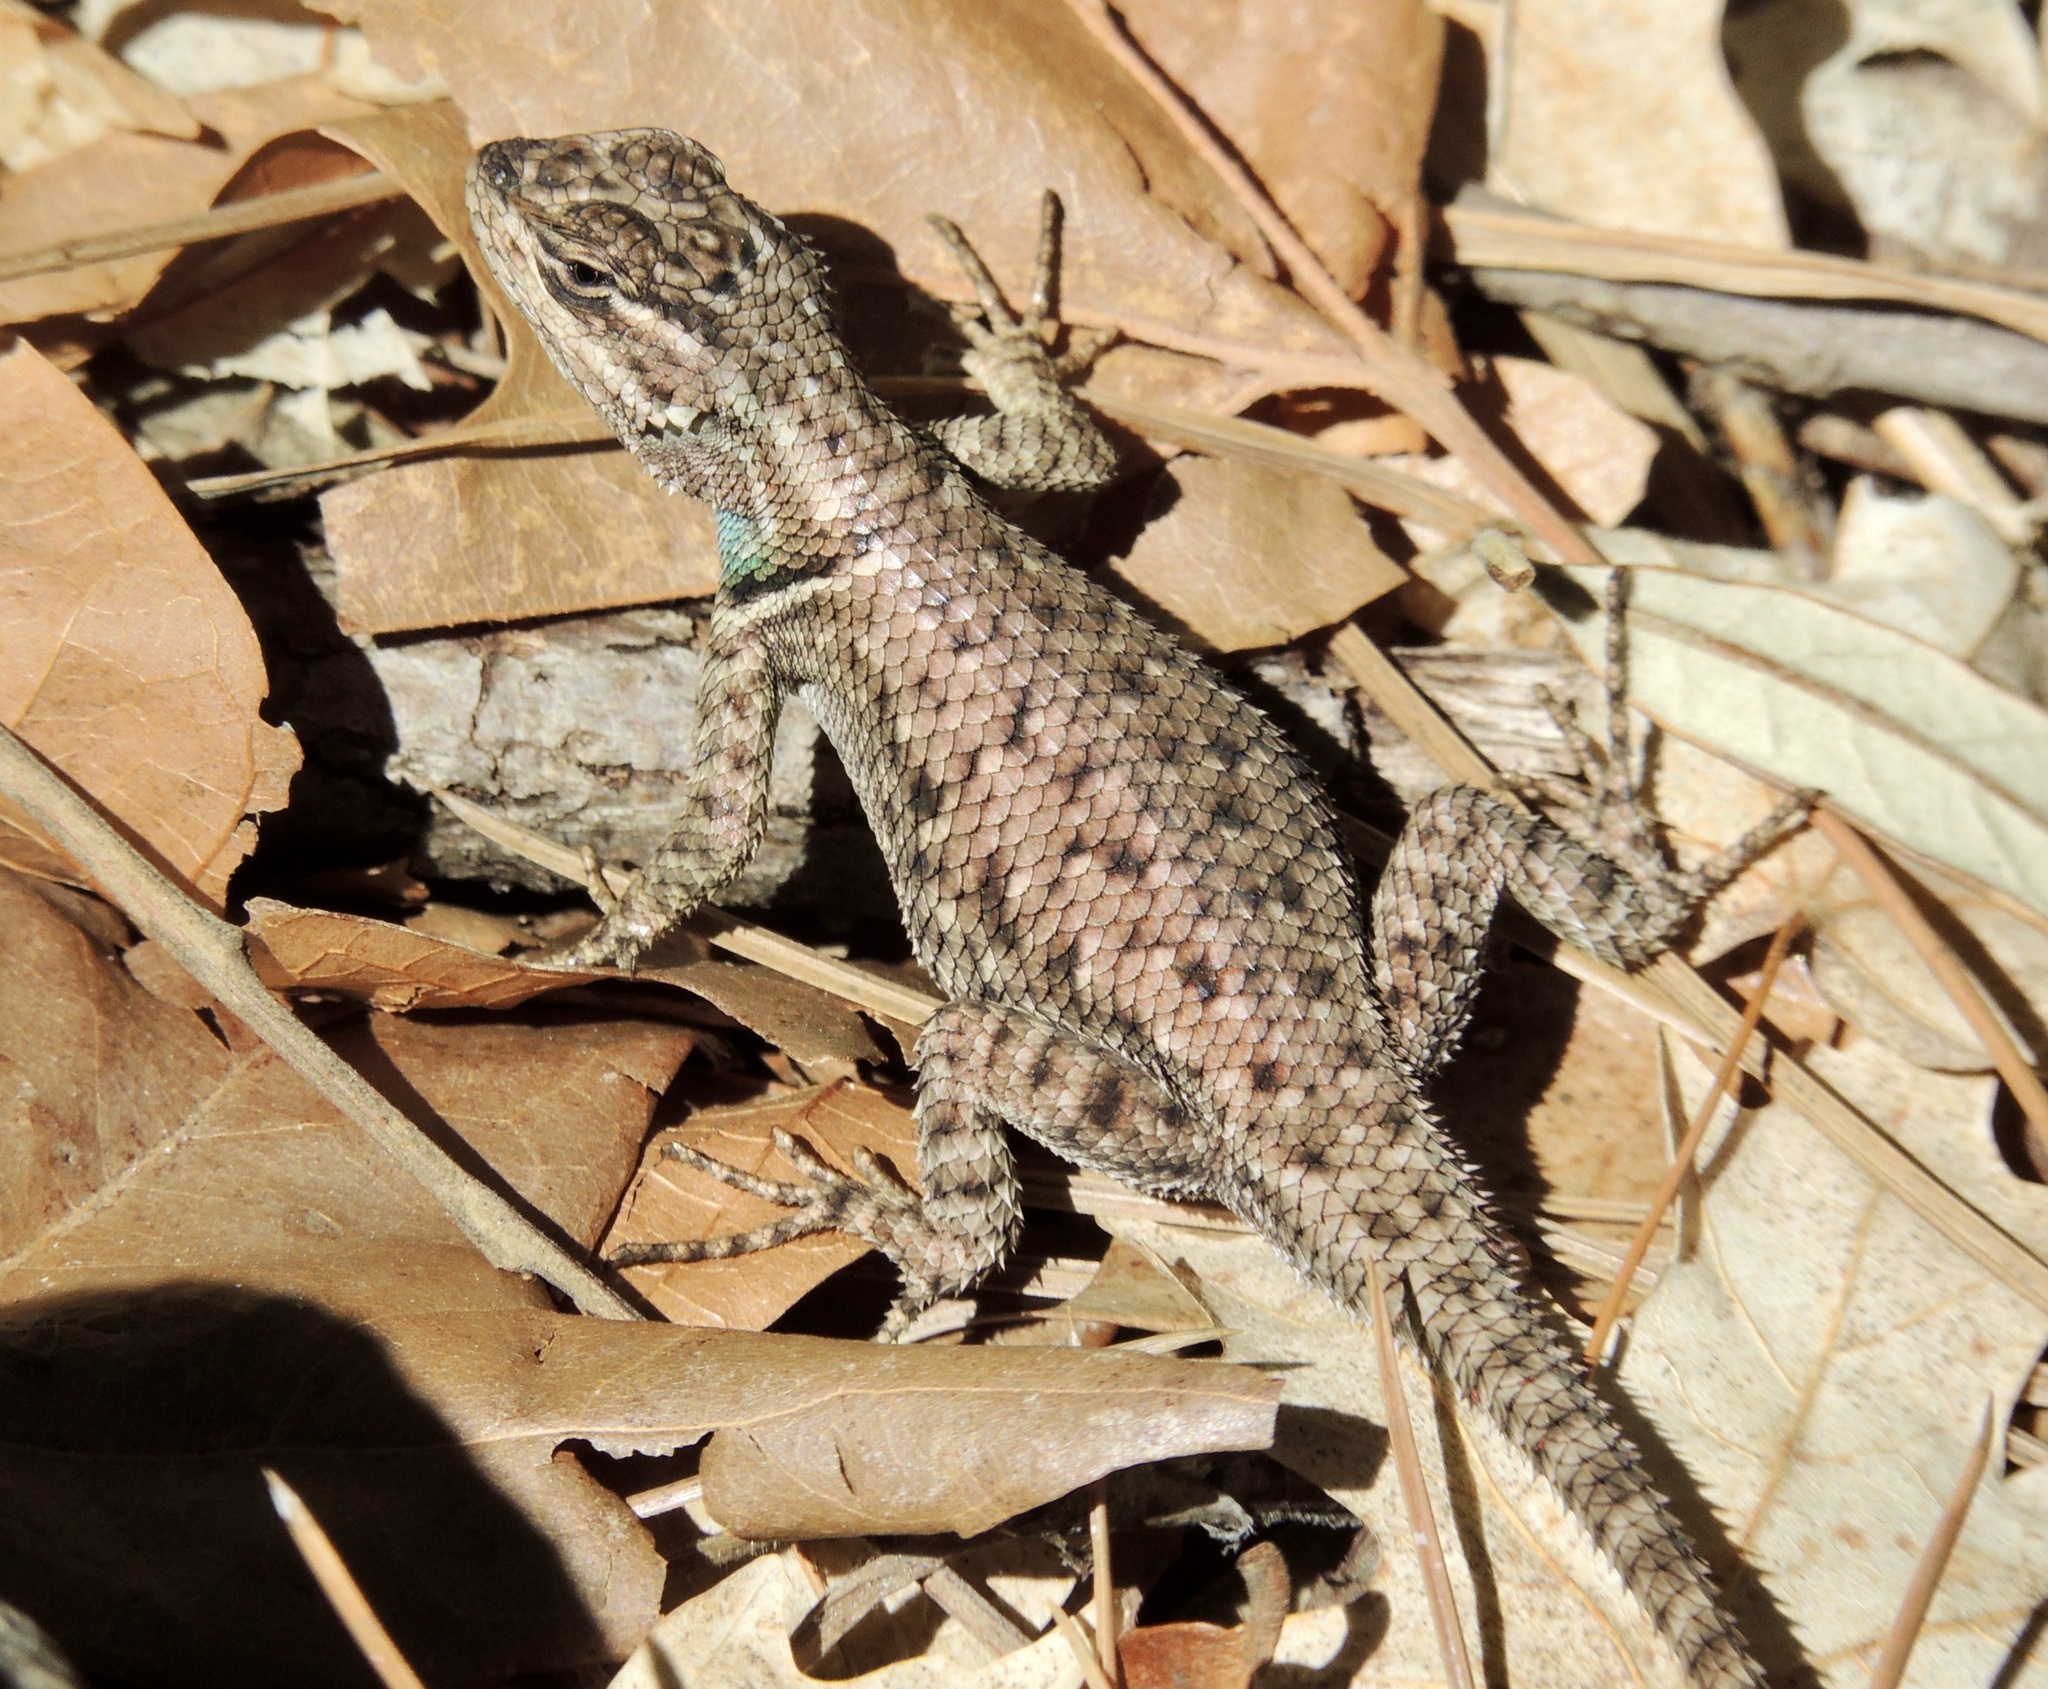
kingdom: Animalia
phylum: Chordata
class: Squamata
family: Phrynosomatidae
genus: Sceloporus
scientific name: Sceloporus jarrovii
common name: Yarrow's spiny lizard
